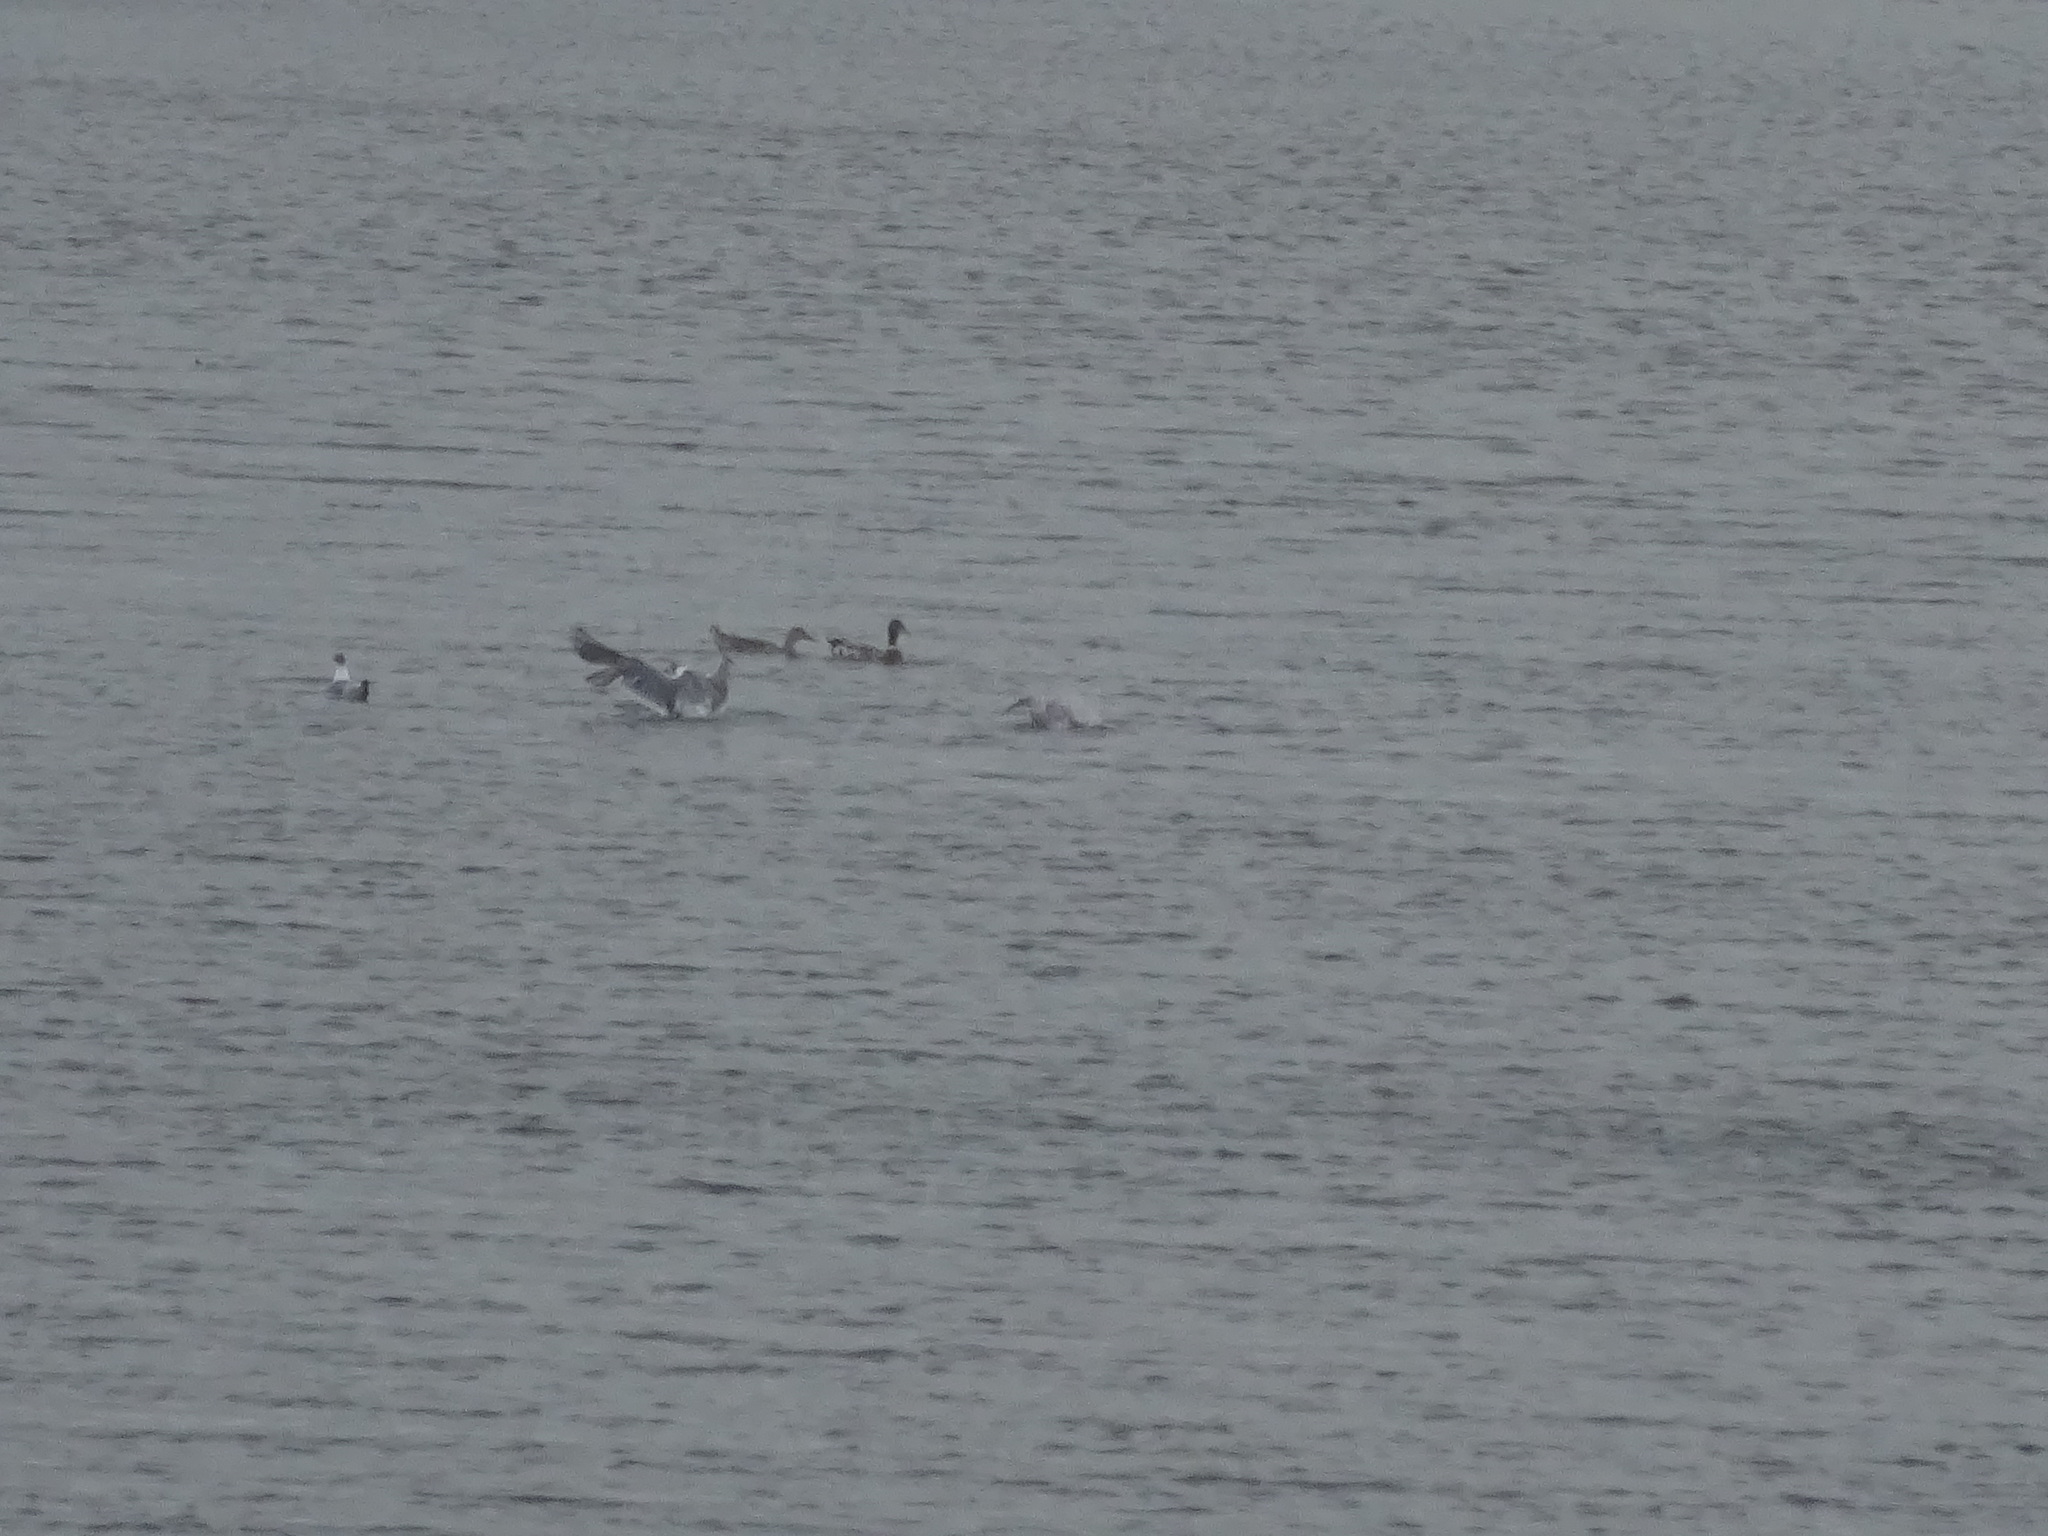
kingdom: Animalia
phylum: Chordata
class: Aves
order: Anseriformes
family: Anatidae
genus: Anas
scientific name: Anas platyrhynchos
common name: Mallard
